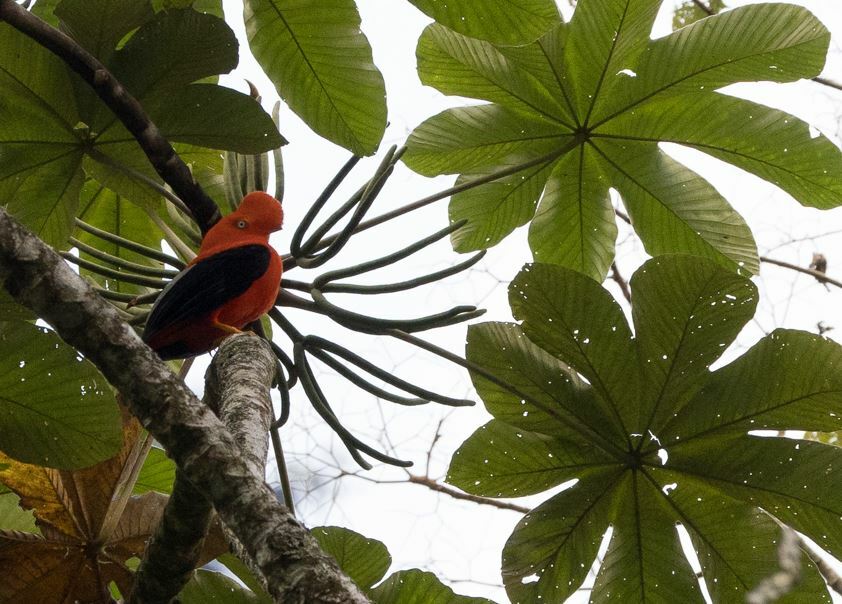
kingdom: Animalia
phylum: Chordata
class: Aves
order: Passeriformes
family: Cotingidae
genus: Rupicola
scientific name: Rupicola peruvianus
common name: Andean cock-of-the-rock
